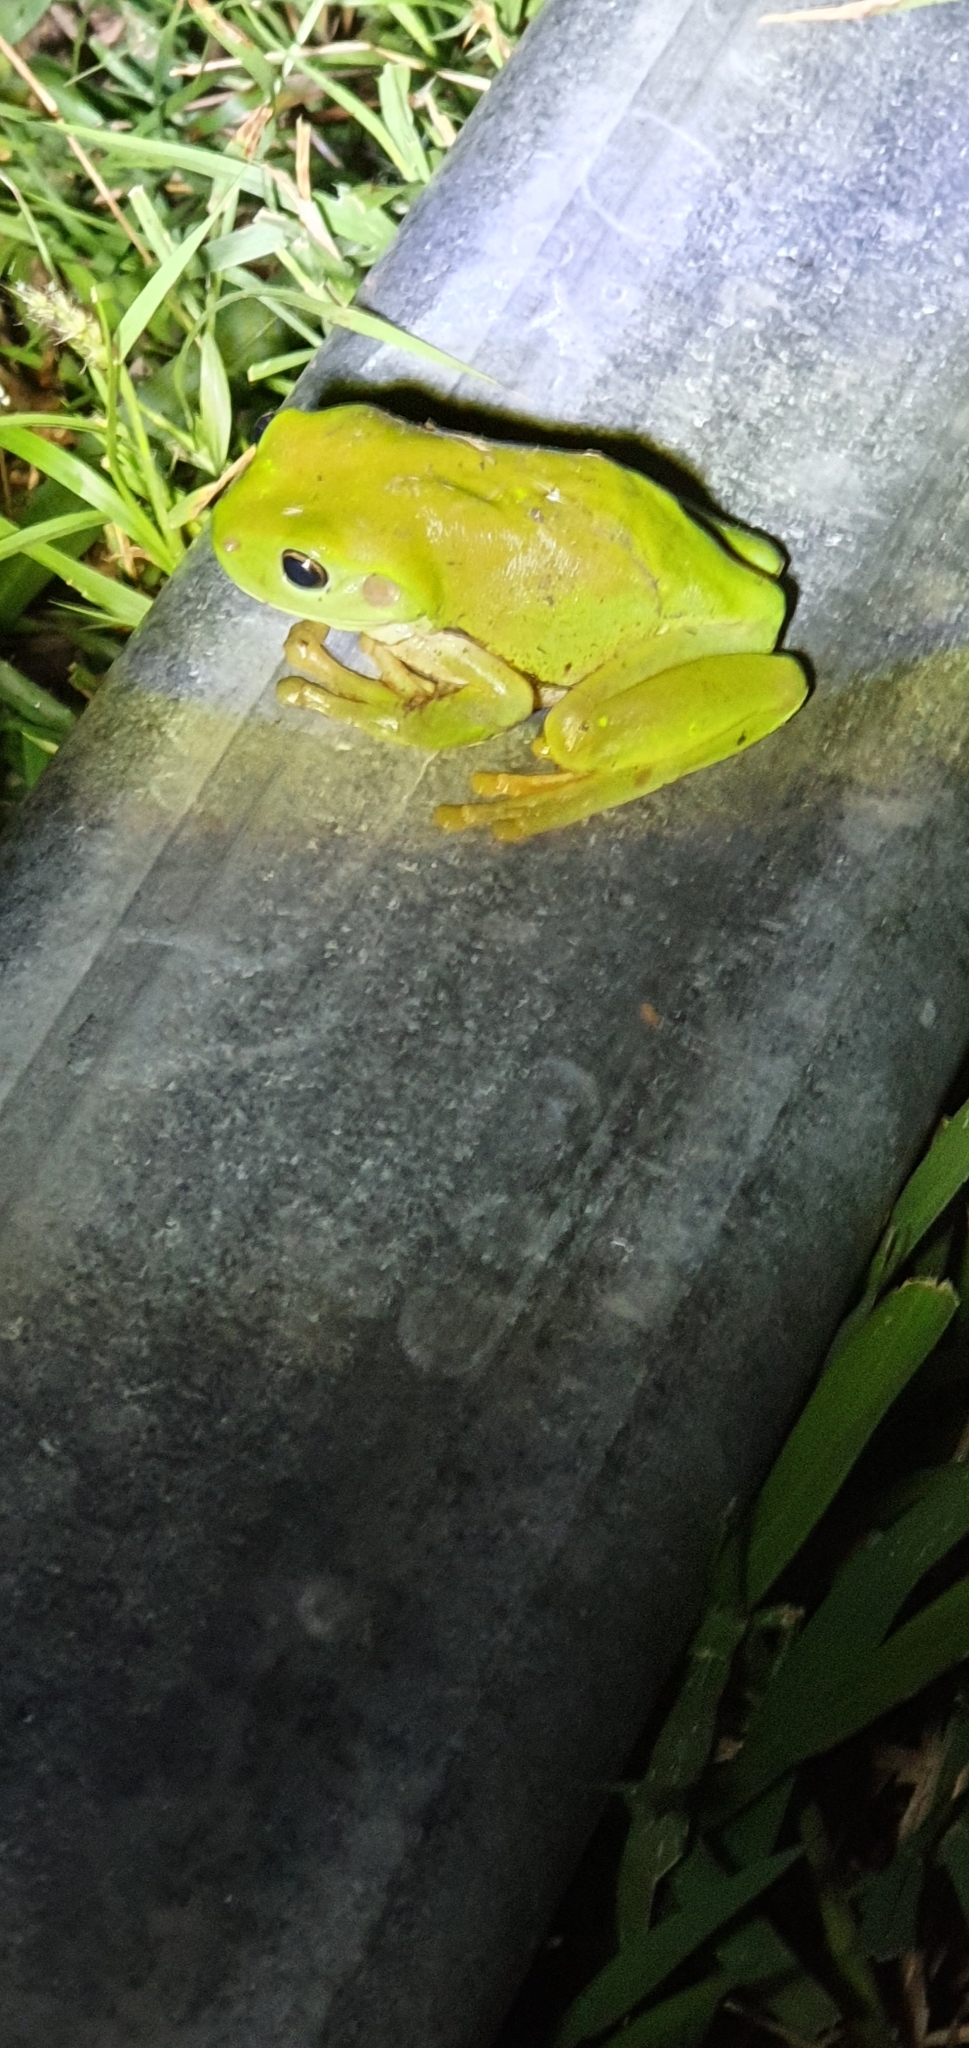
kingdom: Animalia
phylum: Chordata
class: Amphibia
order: Anura
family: Pelodryadidae
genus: Ranoidea
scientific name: Ranoidea caerulea
